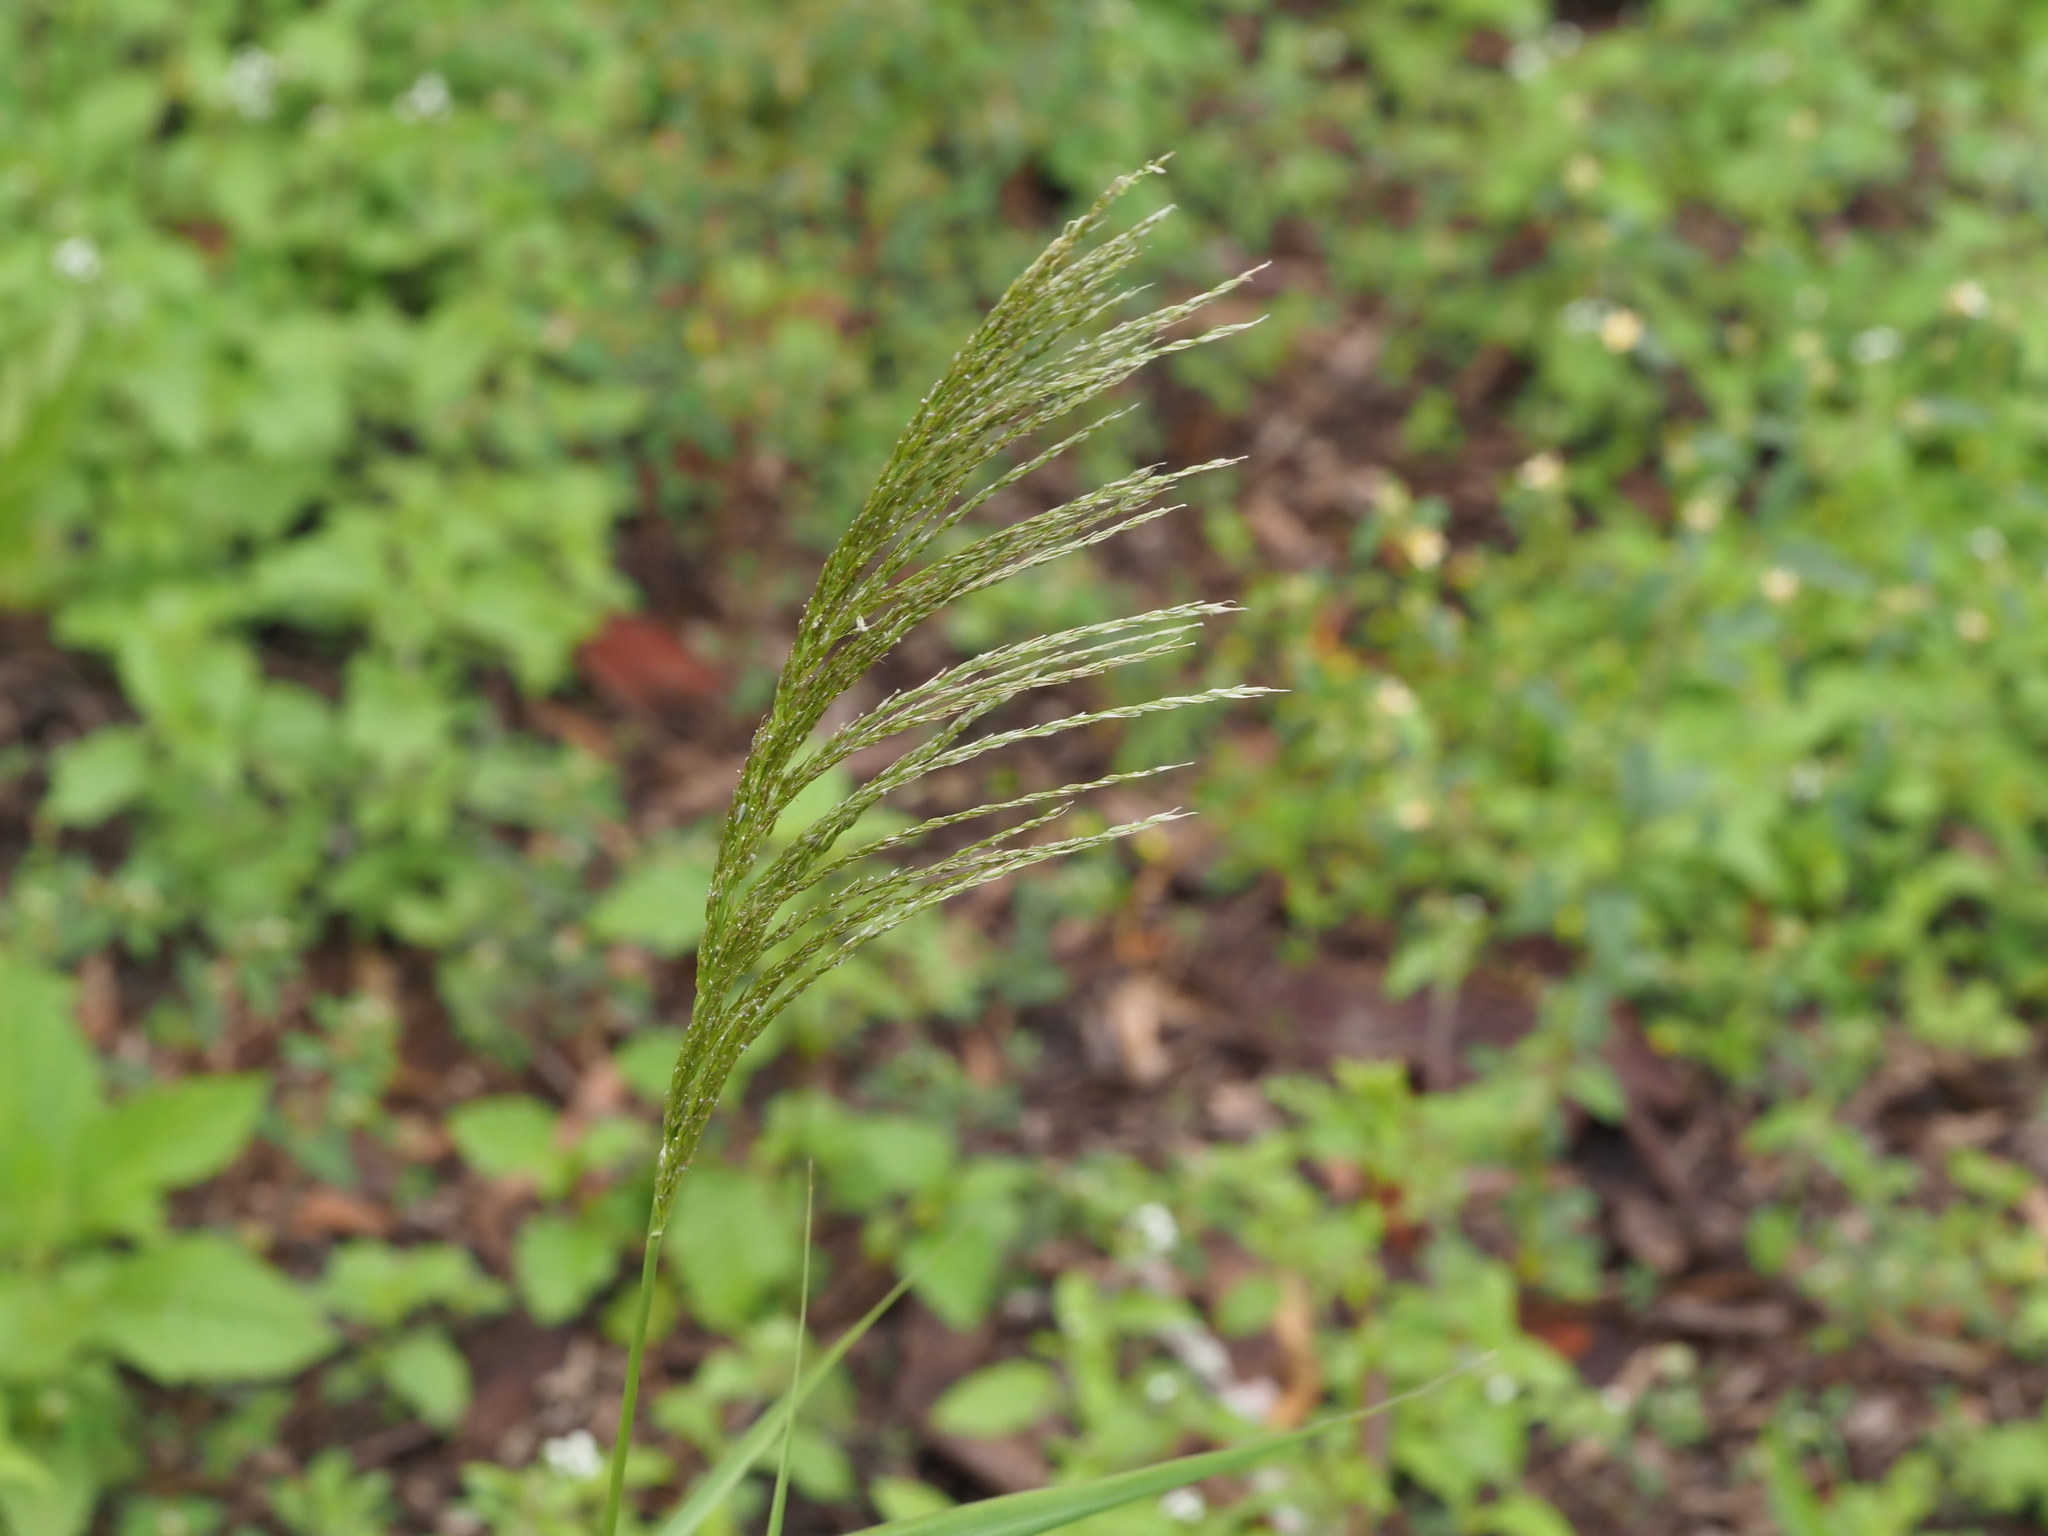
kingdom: Plantae
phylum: Tracheophyta
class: Liliopsida
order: Poales
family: Poaceae
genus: Digitaria
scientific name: Digitaria insularis
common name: Sourgrass
